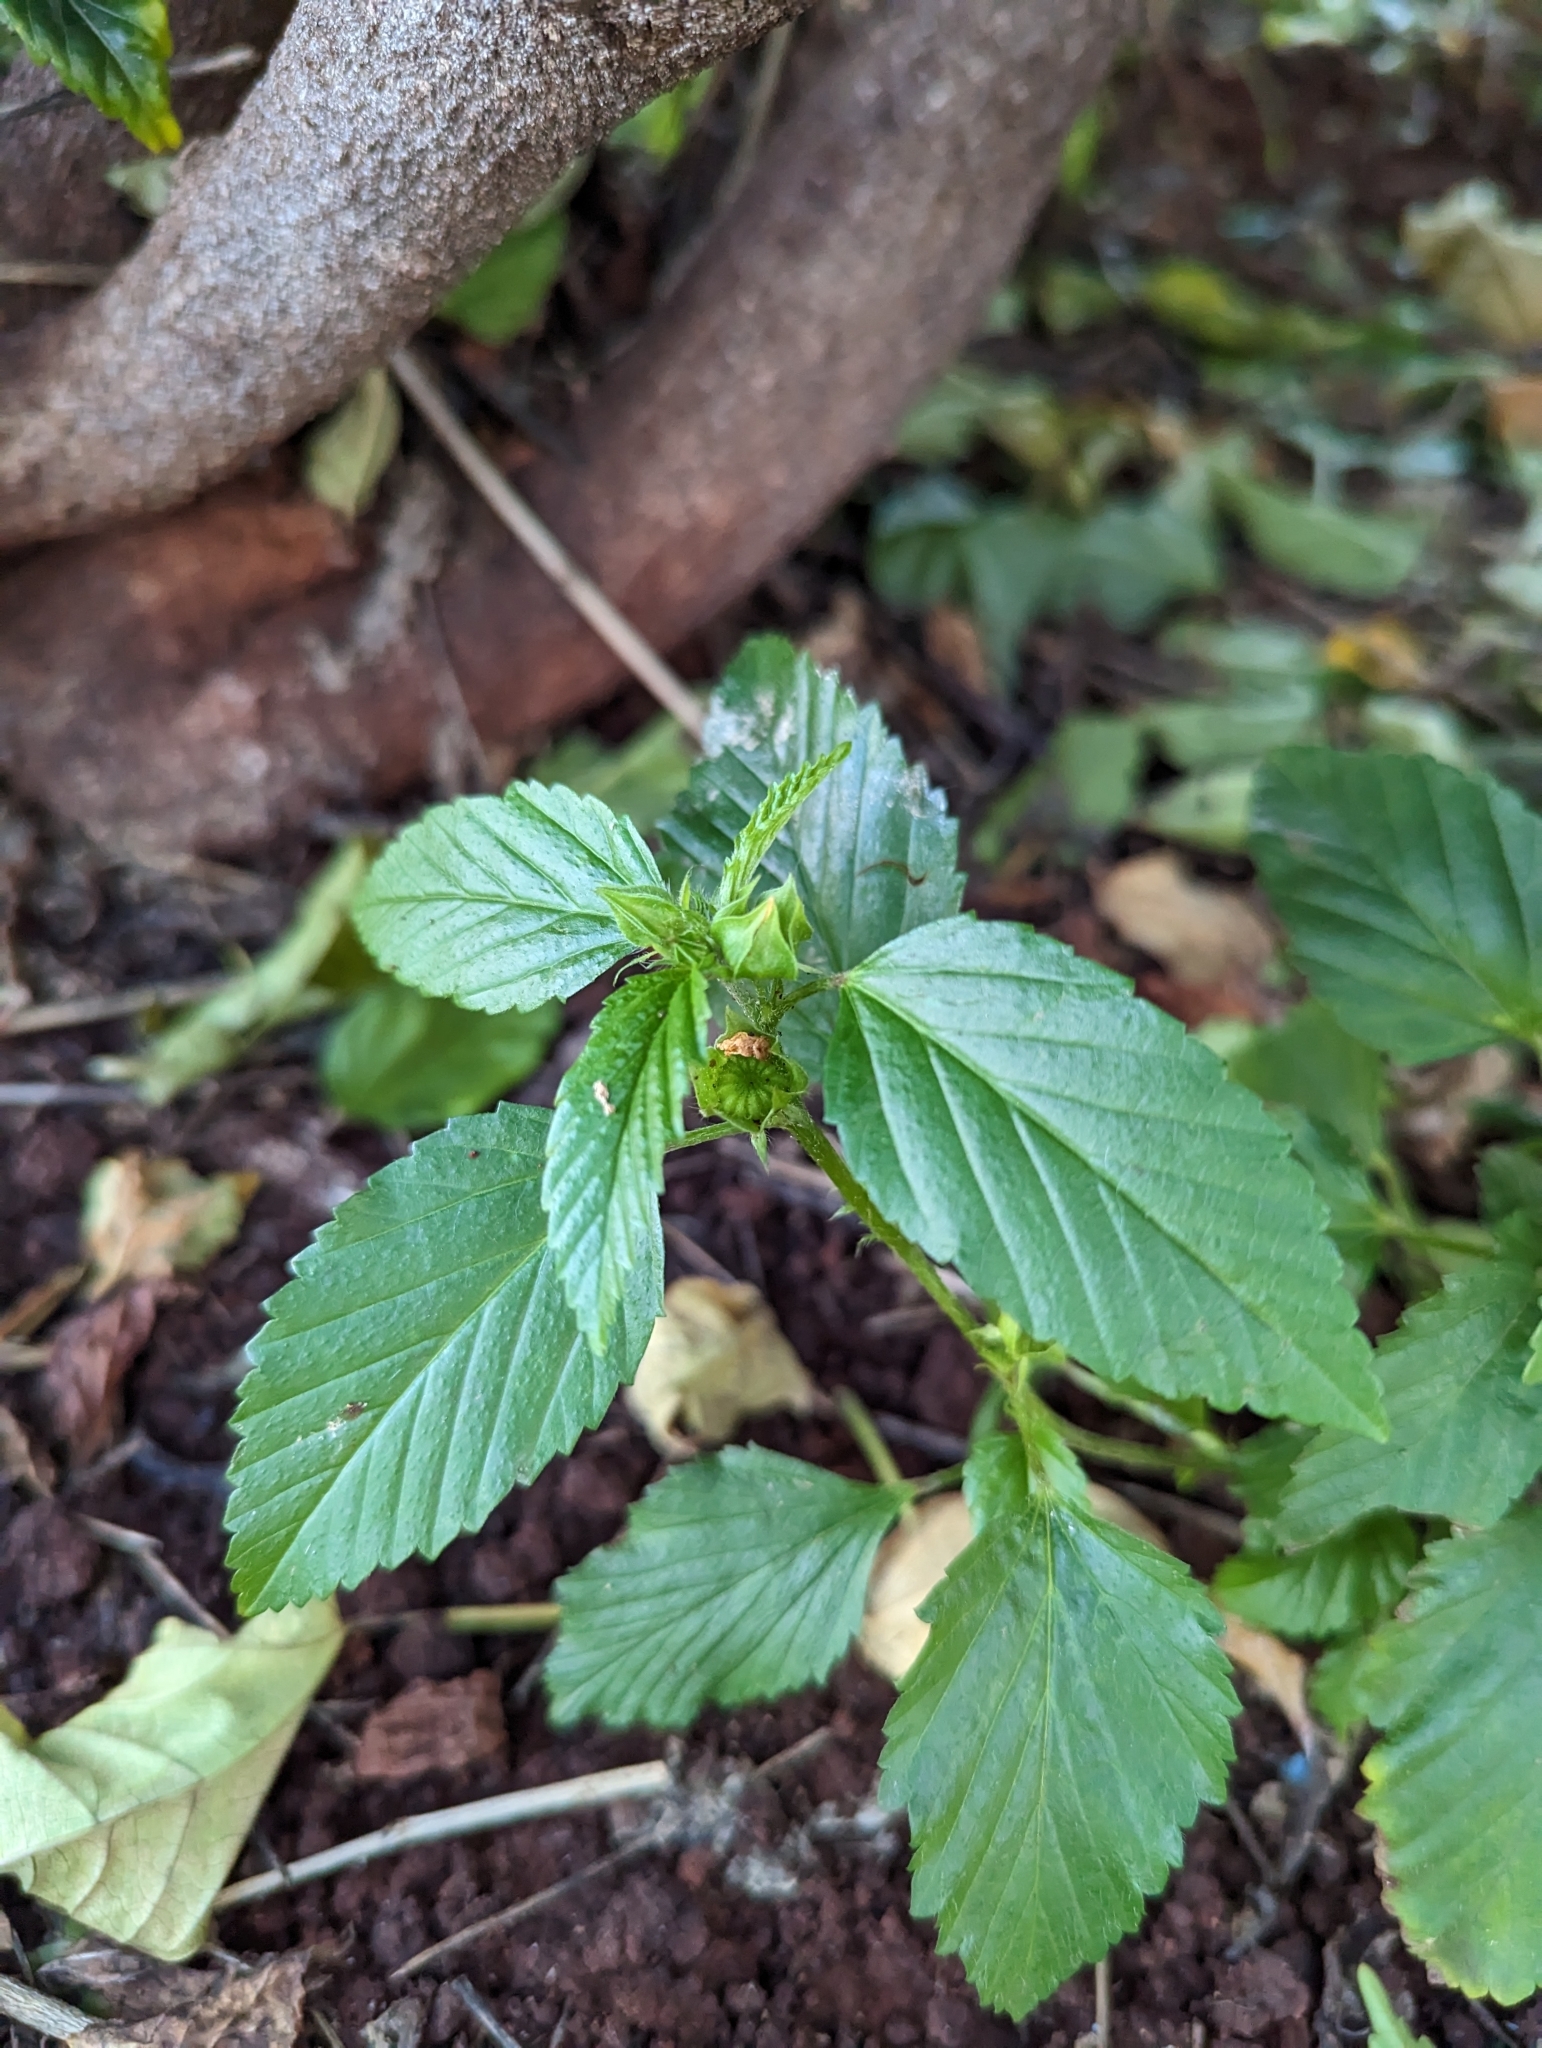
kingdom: Plantae
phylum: Tracheophyta
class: Magnoliopsida
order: Malvales
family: Malvaceae
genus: Malvastrum
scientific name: Malvastrum coromandelianum
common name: Threelobe false mallow
